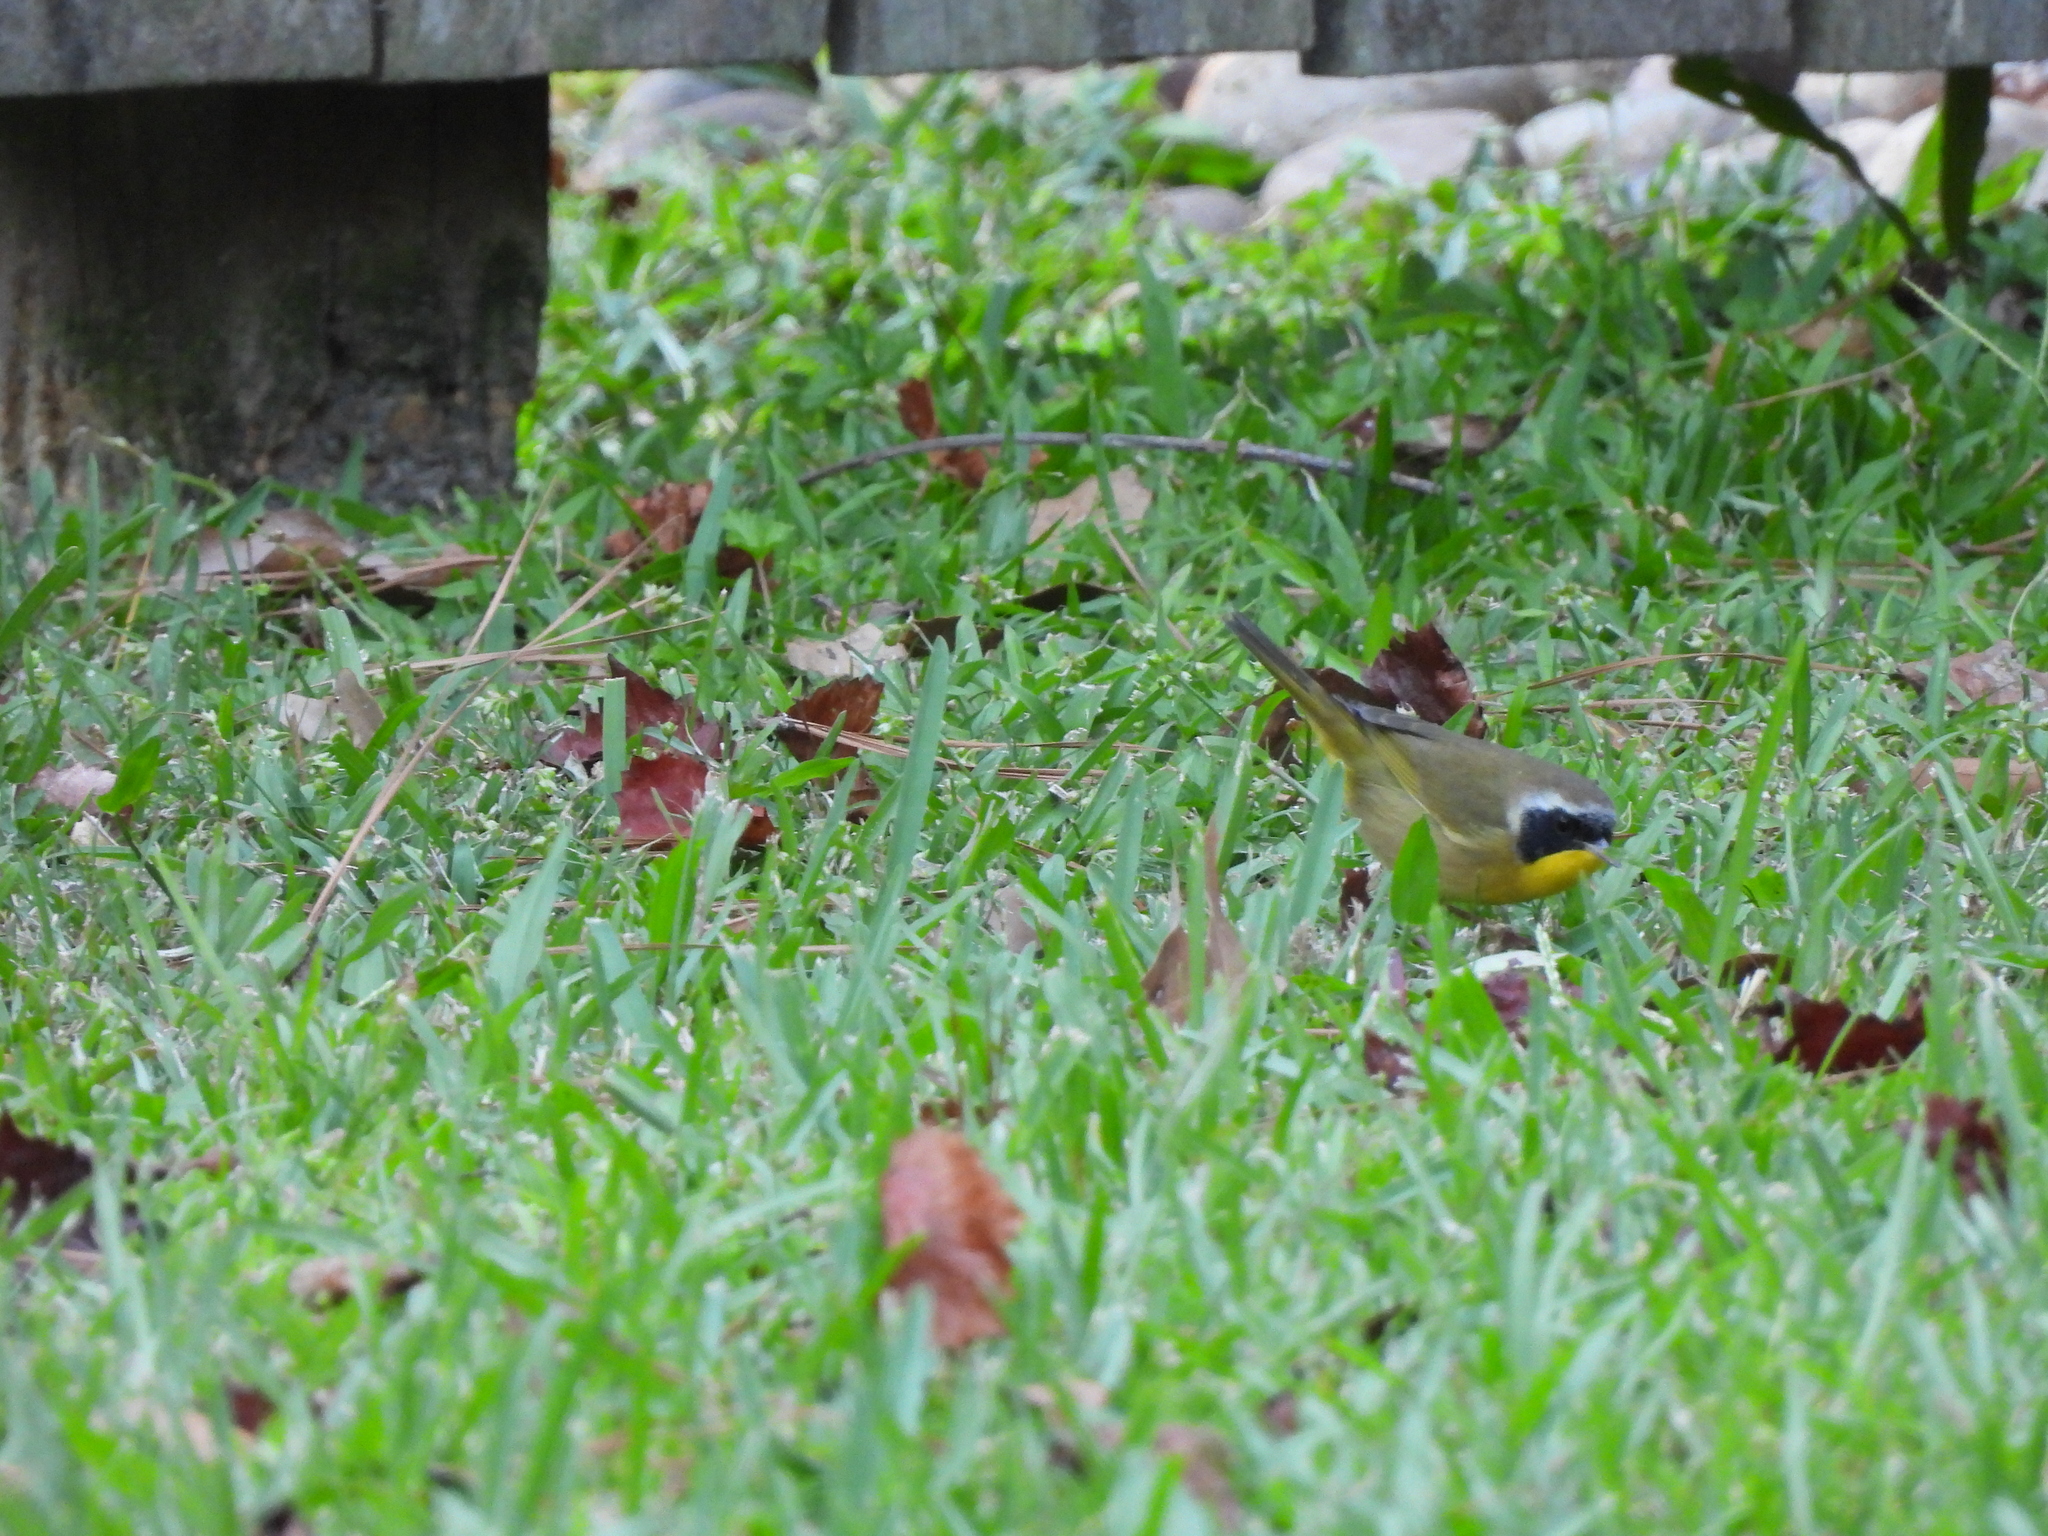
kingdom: Animalia
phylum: Chordata
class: Aves
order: Passeriformes
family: Parulidae
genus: Geothlypis
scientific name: Geothlypis trichas
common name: Common yellowthroat
